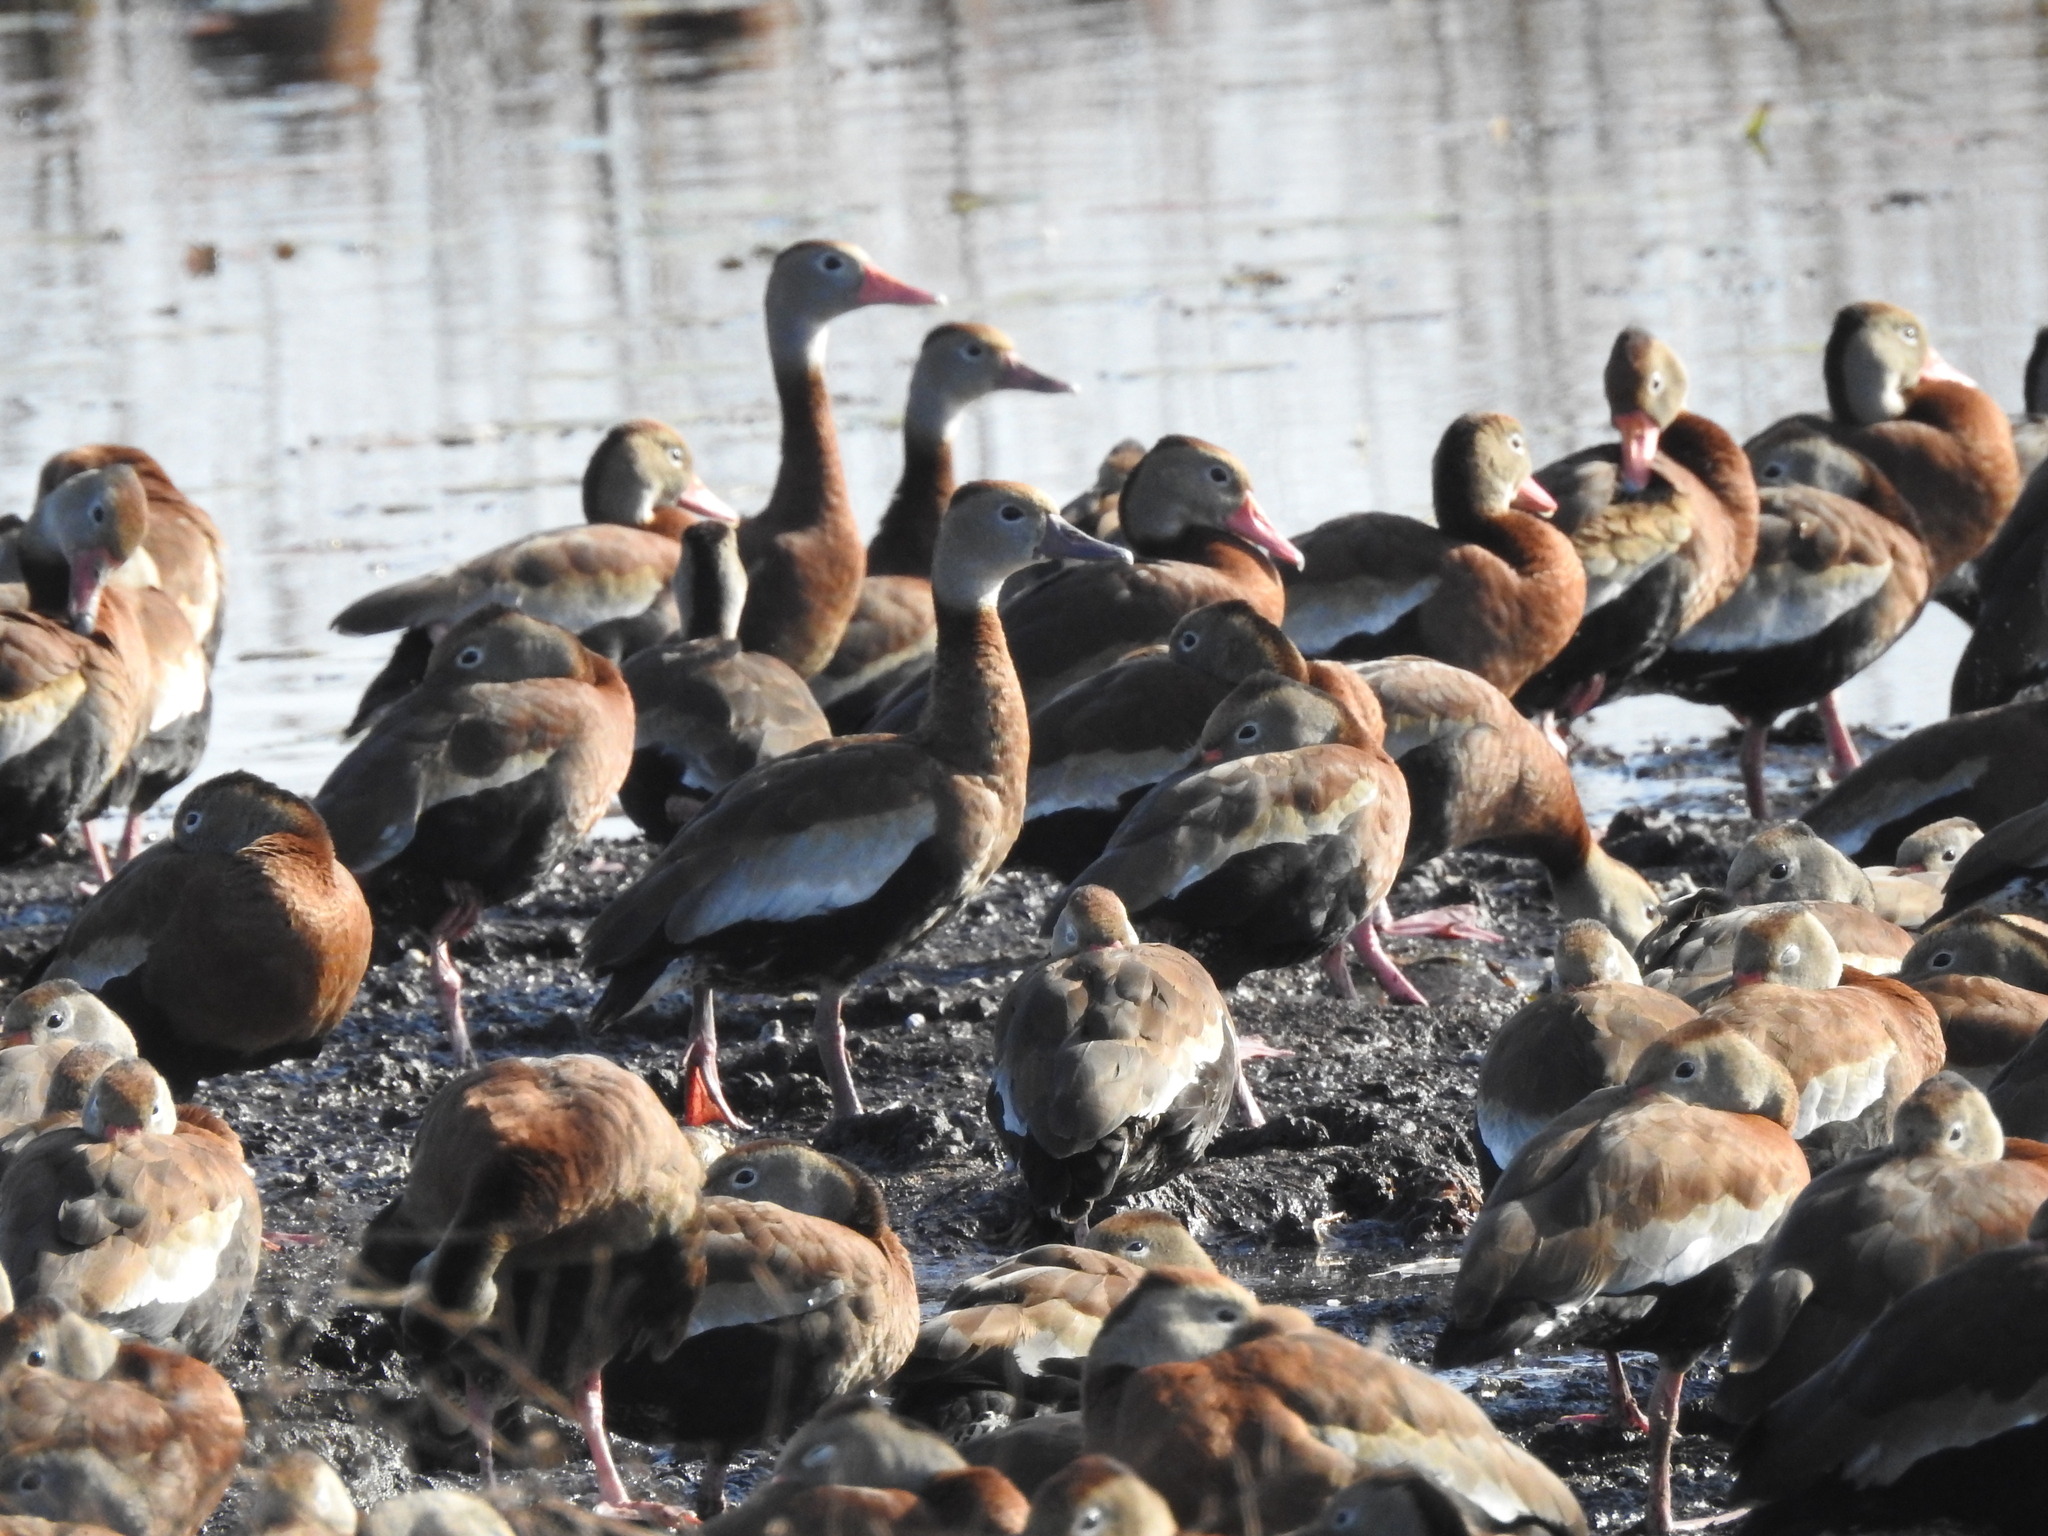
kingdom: Animalia
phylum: Chordata
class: Aves
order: Anseriformes
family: Anatidae
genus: Dendrocygna
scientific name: Dendrocygna autumnalis
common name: Black-bellied whistling duck
